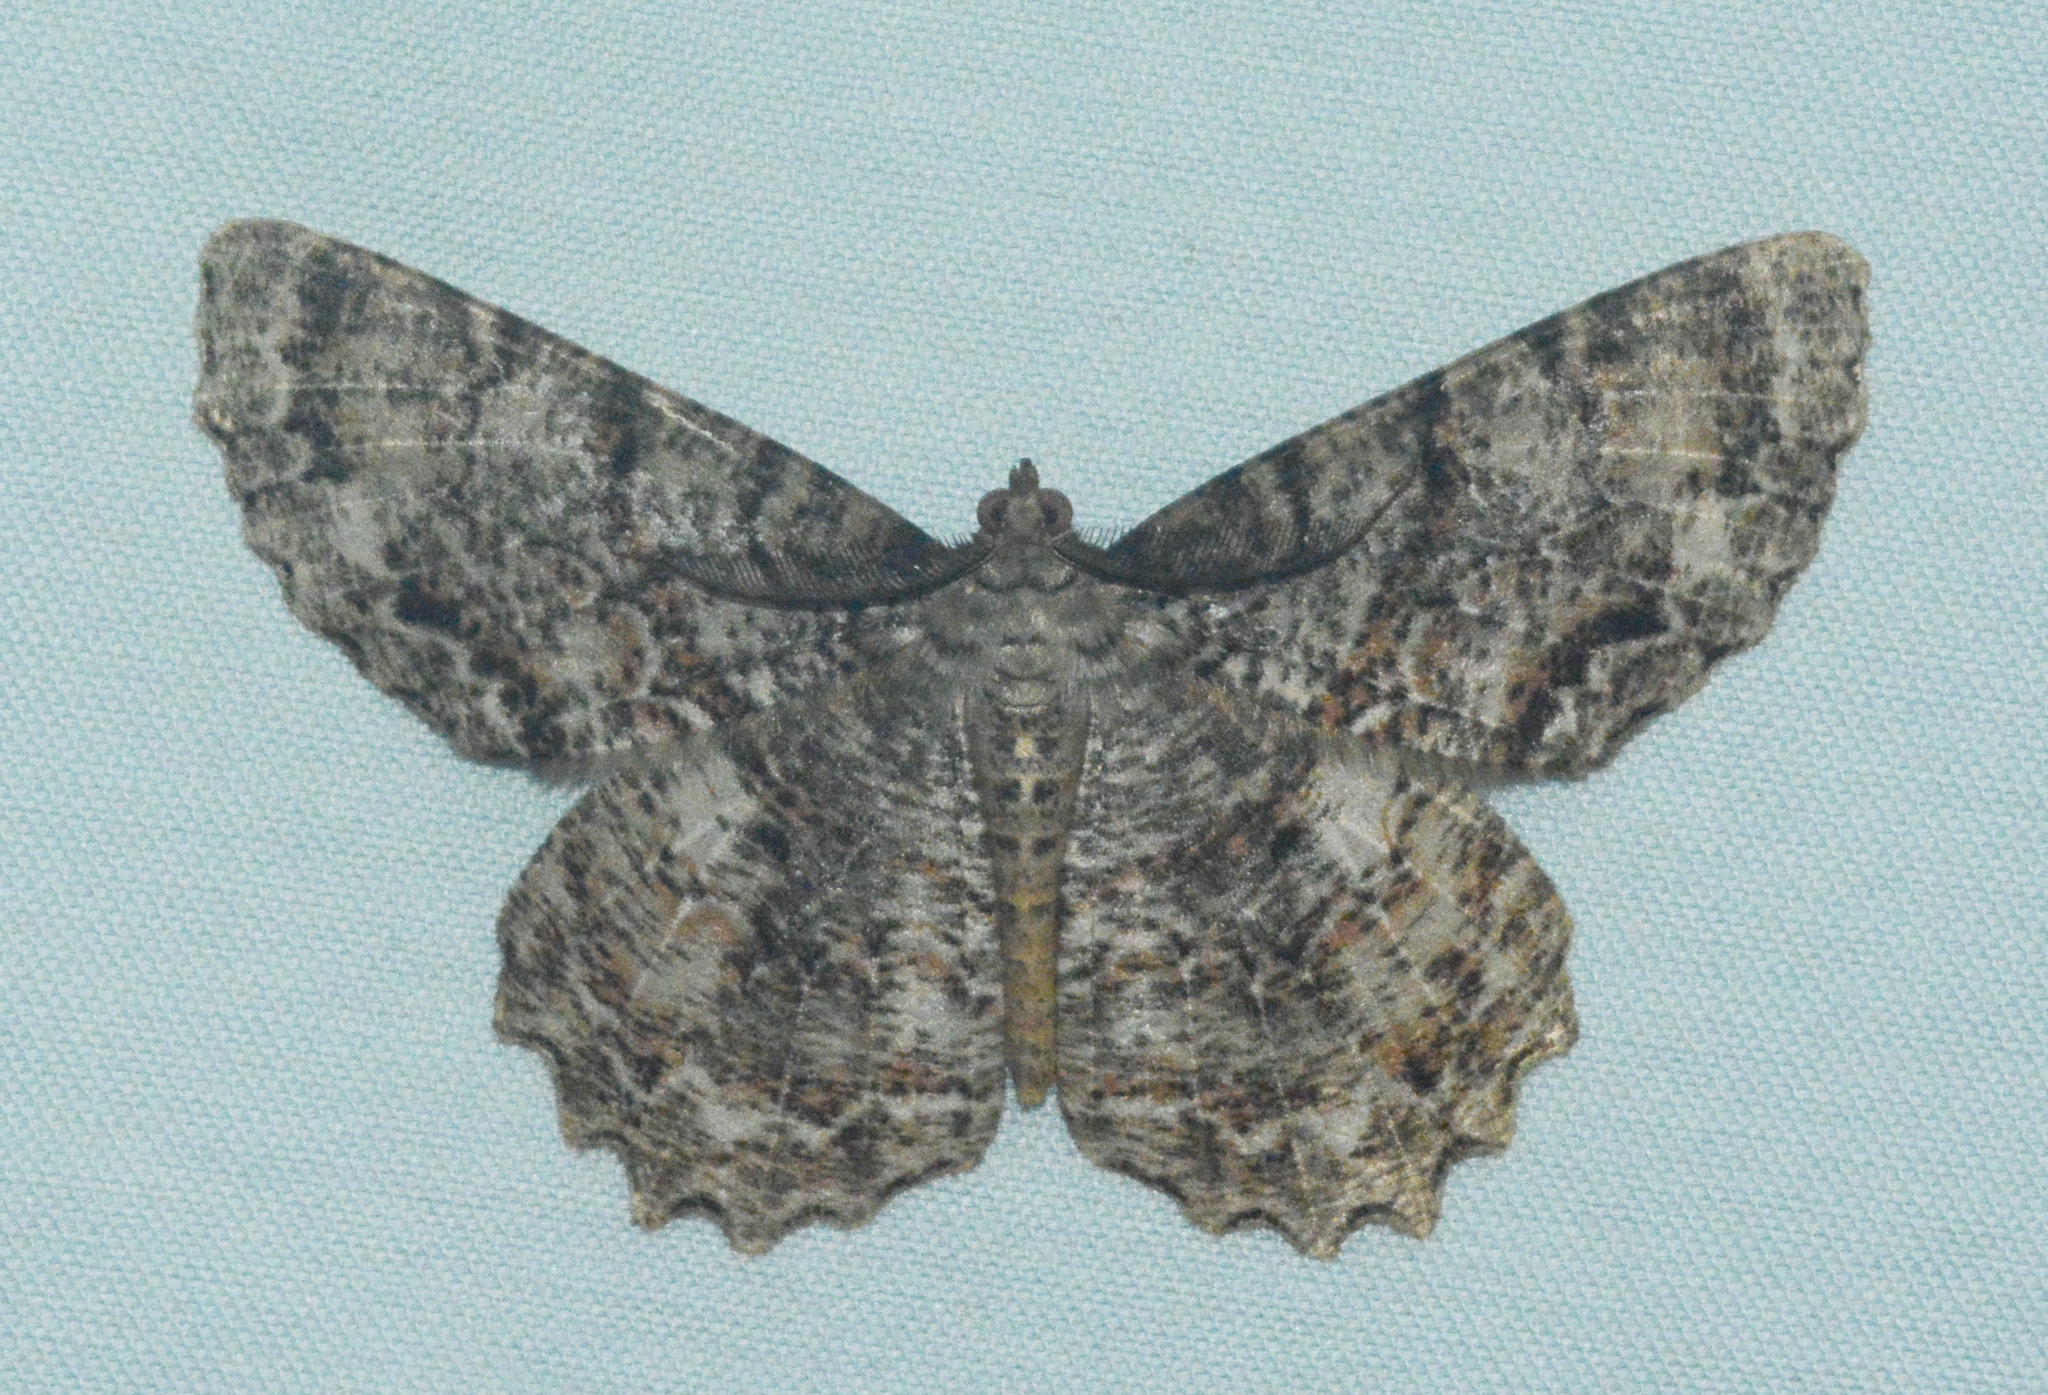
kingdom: Animalia
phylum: Arthropoda
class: Insecta
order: Lepidoptera
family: Geometridae
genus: Epimecis
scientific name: Epimecis hortaria
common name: Tulip-tree beauty
